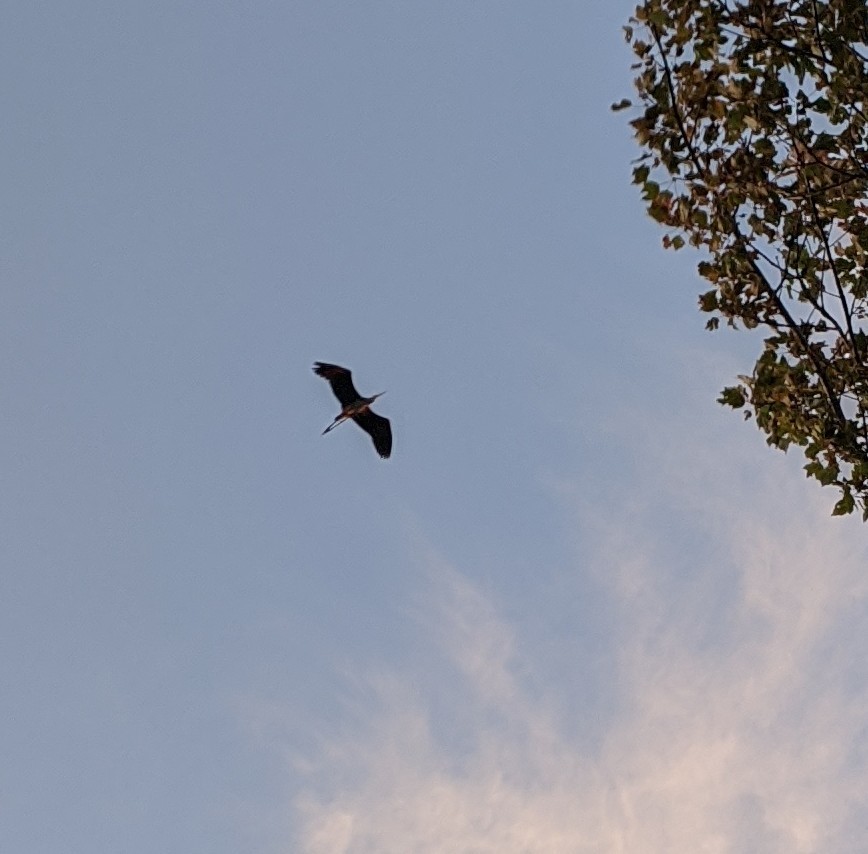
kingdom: Animalia
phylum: Chordata
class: Aves
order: Pelecaniformes
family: Ardeidae
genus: Ardea
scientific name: Ardea herodias
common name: Great blue heron
